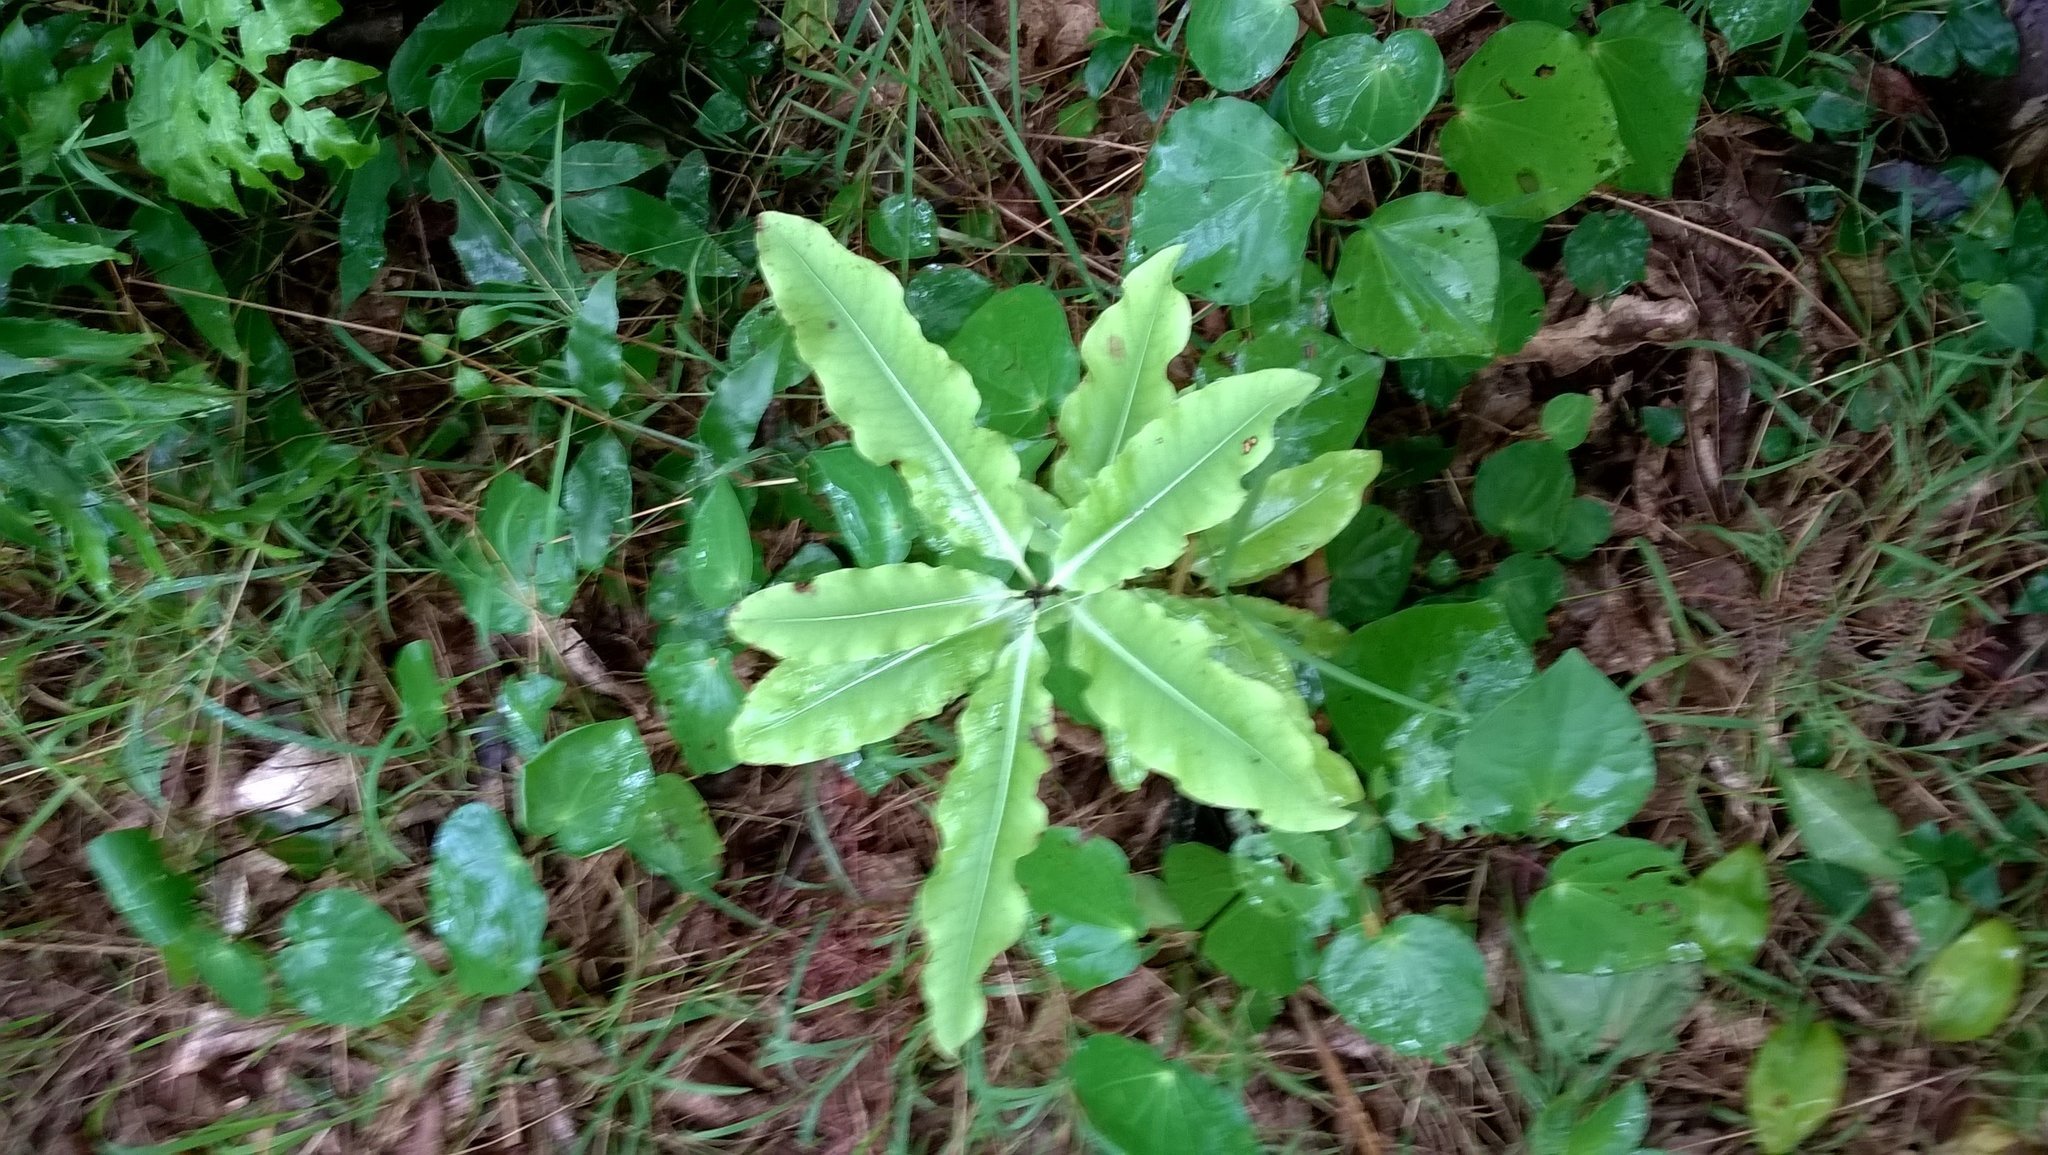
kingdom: Plantae
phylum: Tracheophyta
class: Magnoliopsida
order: Apiales
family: Pittosporaceae
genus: Pittosporum
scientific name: Pittosporum eugenioides
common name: Lemonwood
